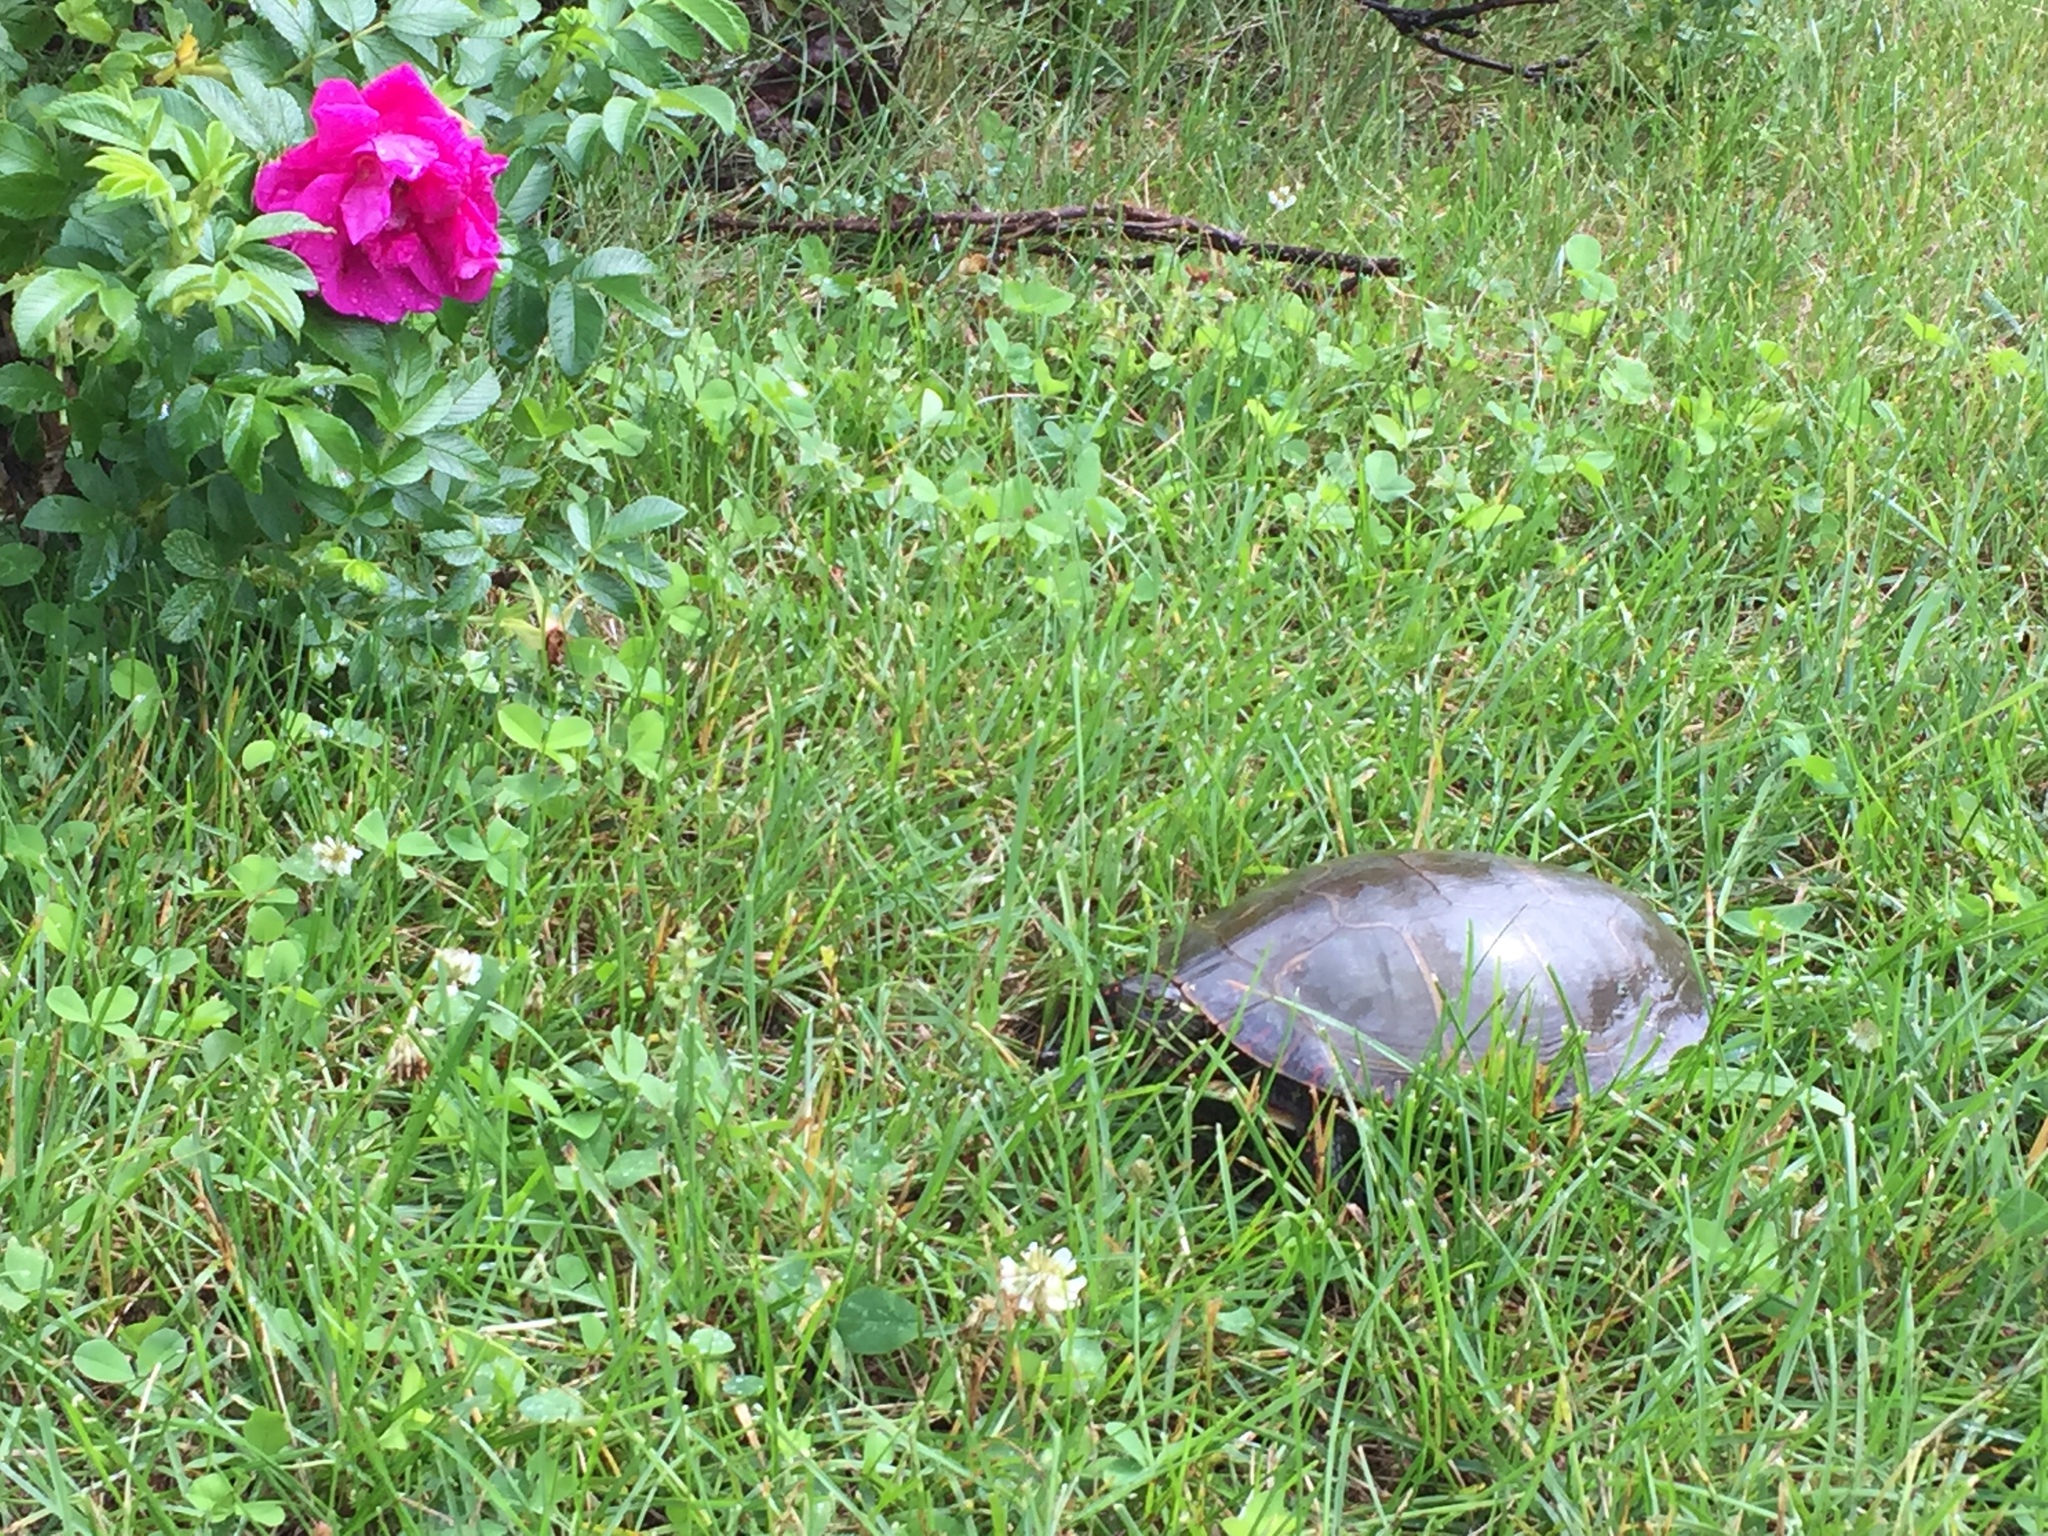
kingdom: Animalia
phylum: Chordata
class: Testudines
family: Emydidae
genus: Chrysemys
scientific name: Chrysemys picta
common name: Painted turtle
